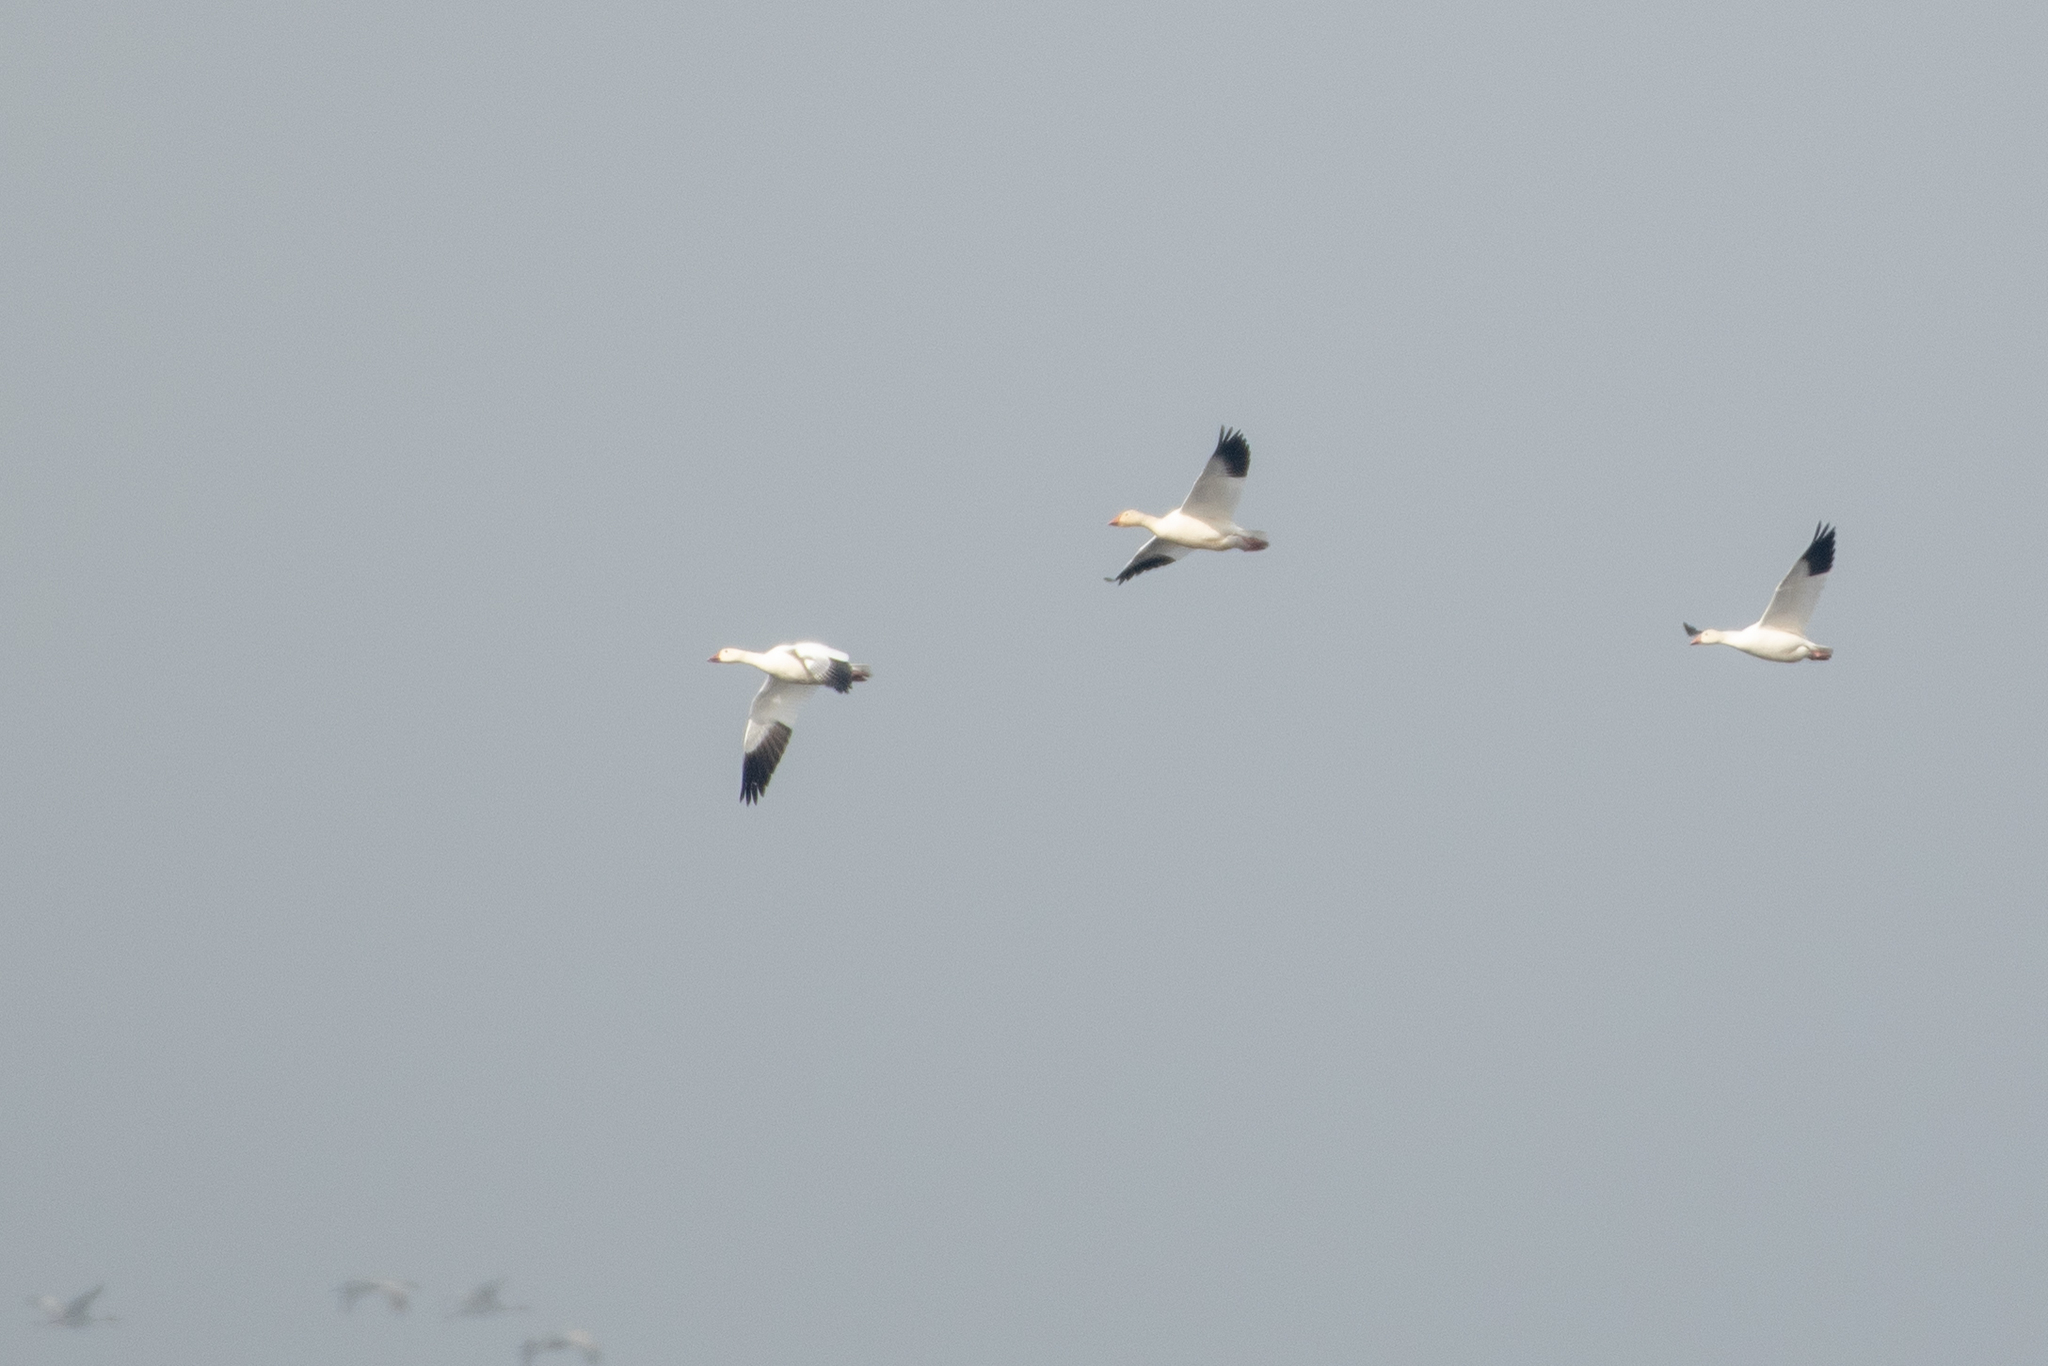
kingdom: Animalia
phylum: Chordata
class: Aves
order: Anseriformes
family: Anatidae
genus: Anser
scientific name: Anser caerulescens
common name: Snow goose
